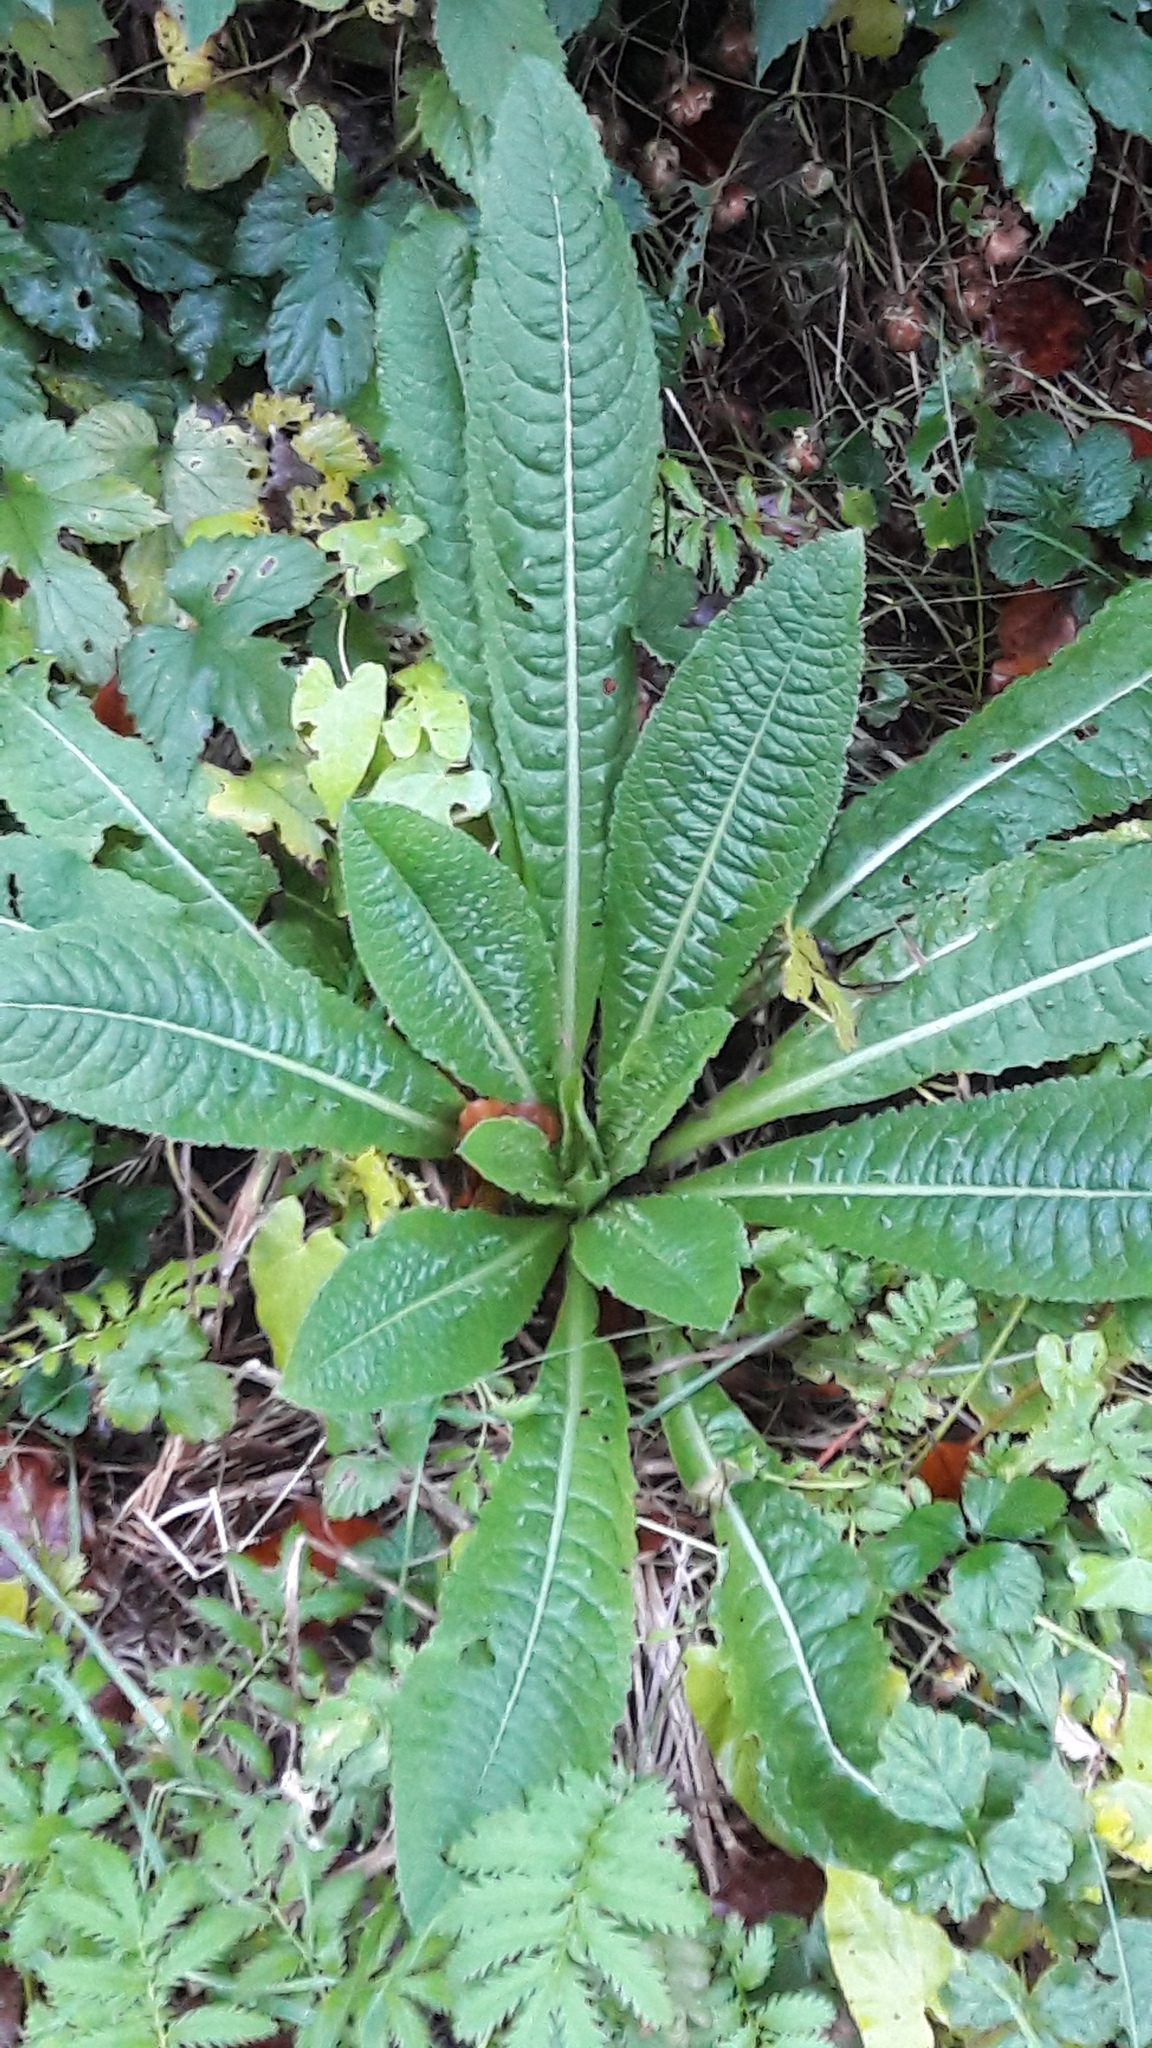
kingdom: Plantae
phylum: Tracheophyta
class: Magnoliopsida
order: Dipsacales
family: Caprifoliaceae
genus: Dipsacus
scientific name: Dipsacus fullonum
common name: Teasel
